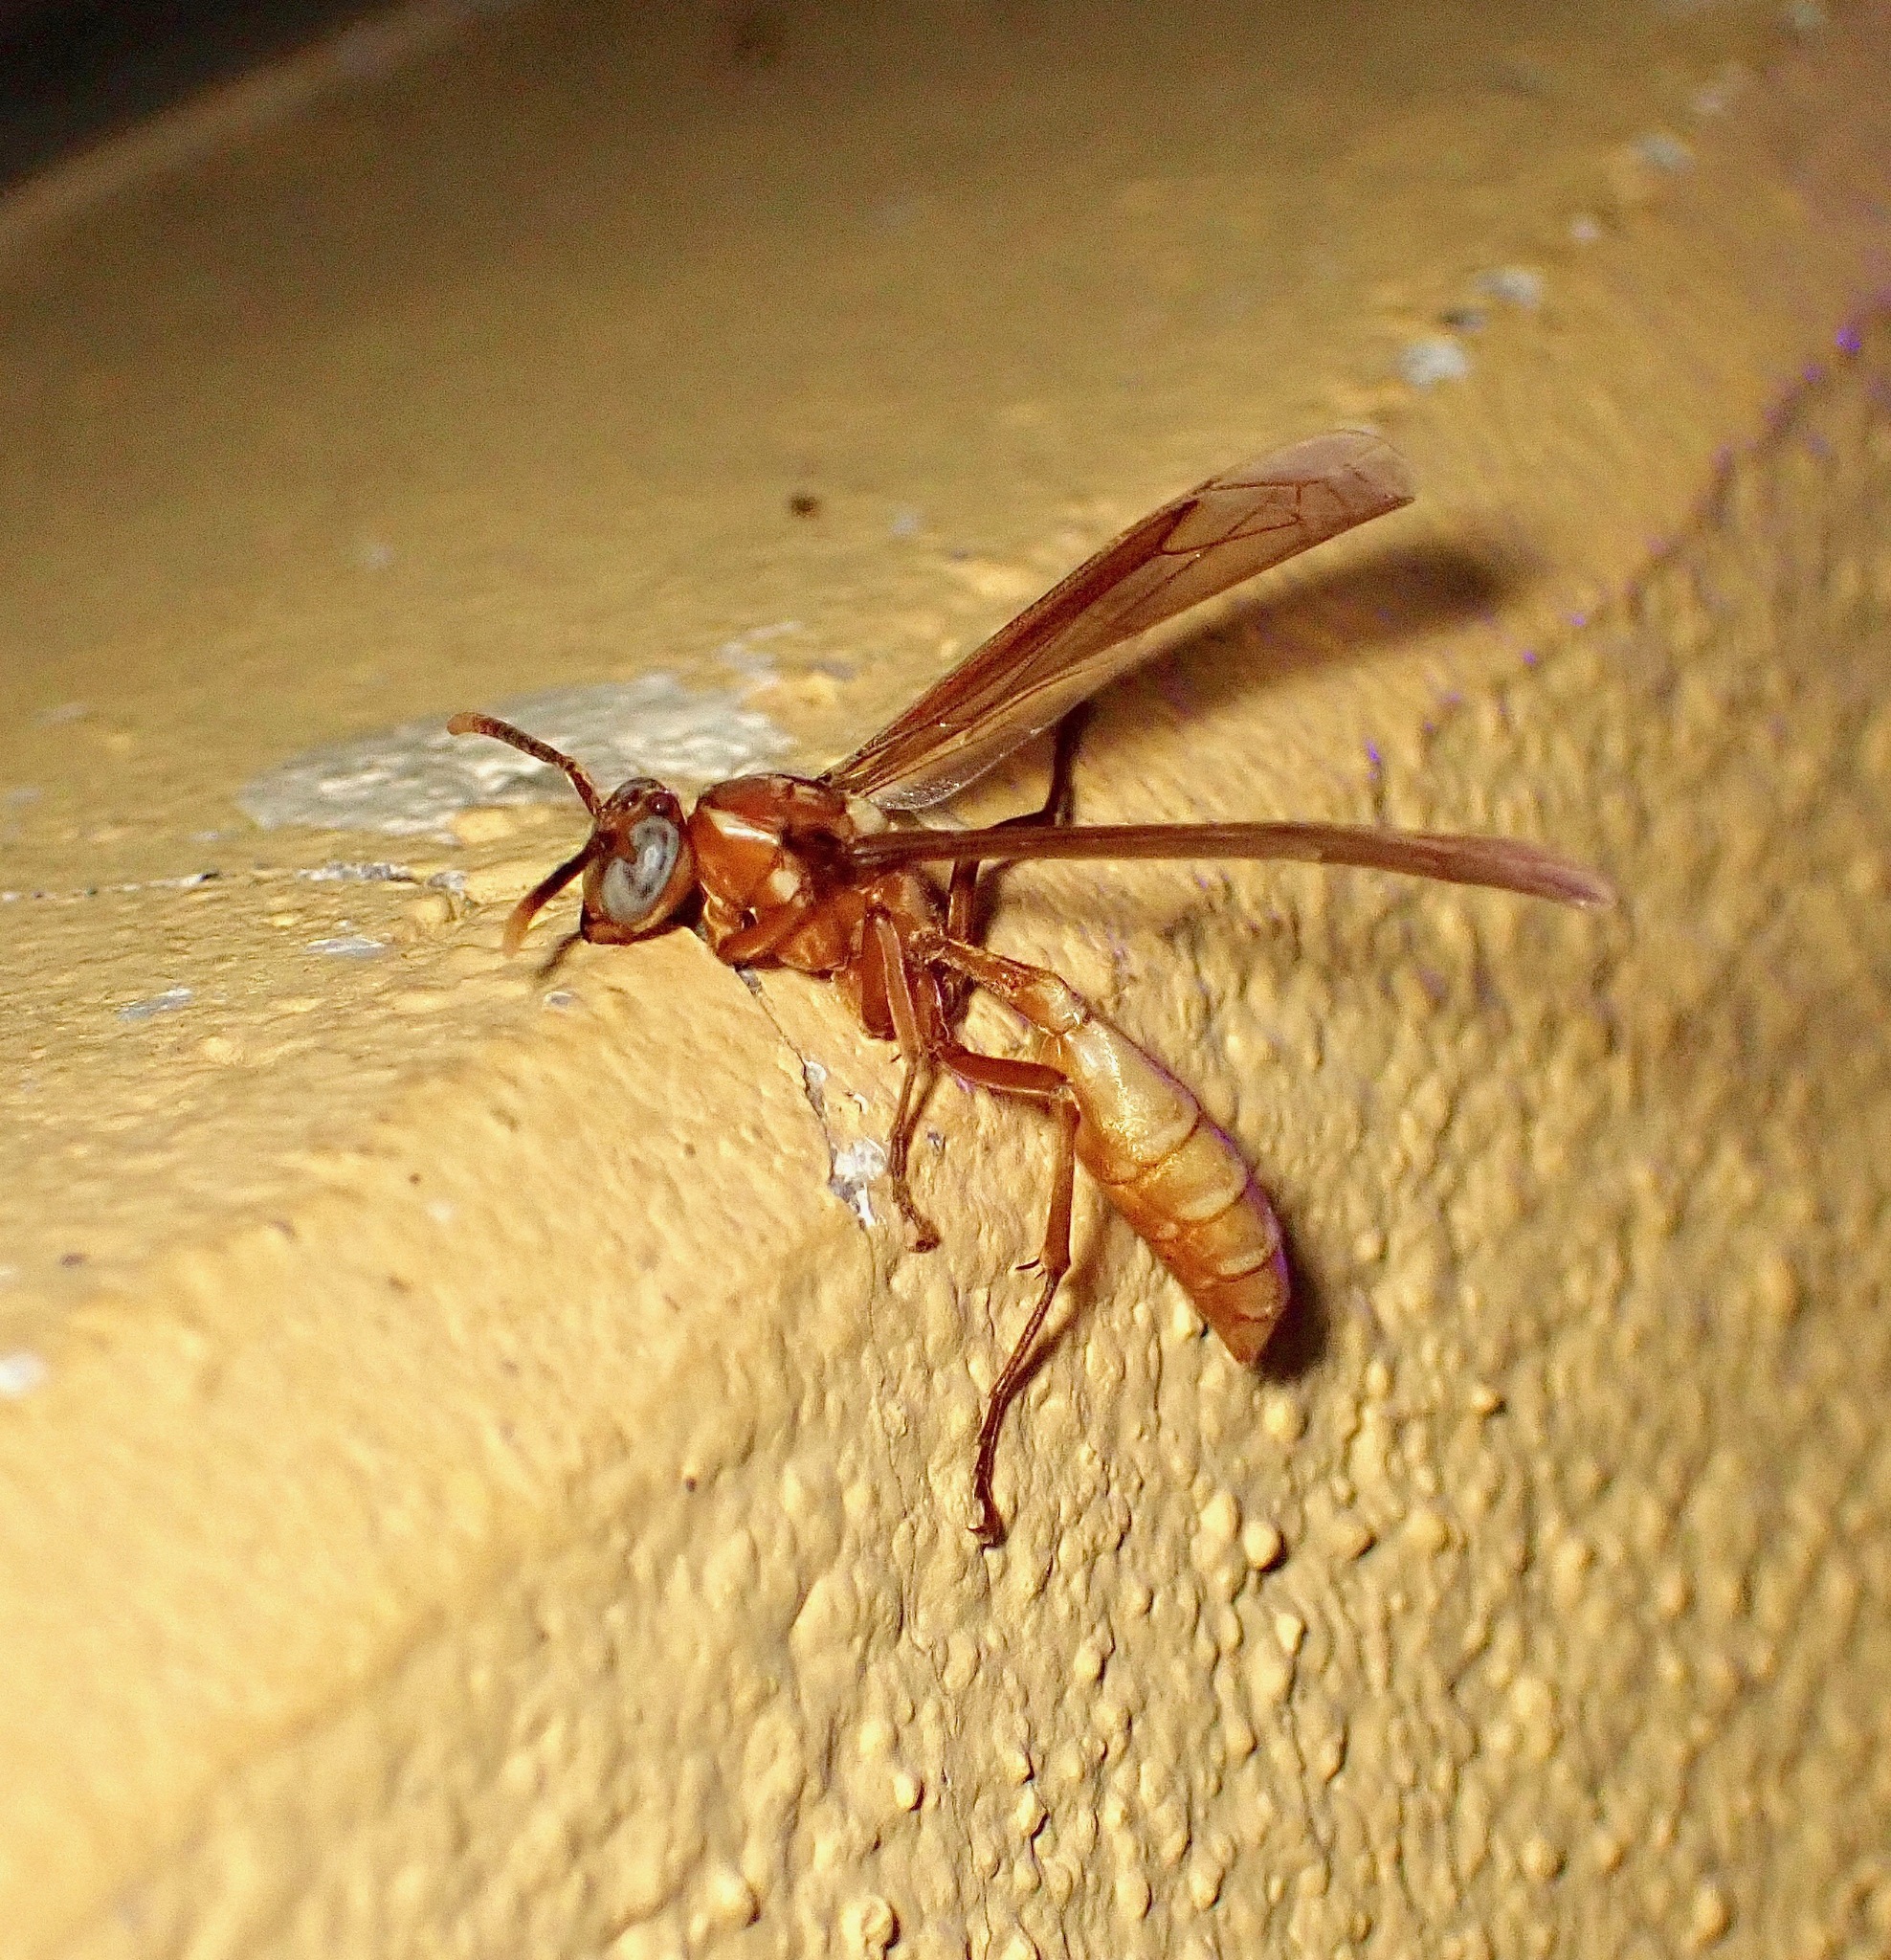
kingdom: Animalia
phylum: Arthropoda
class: Insecta
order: Hymenoptera
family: Vespidae
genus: Apoica
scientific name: Apoica gelida
